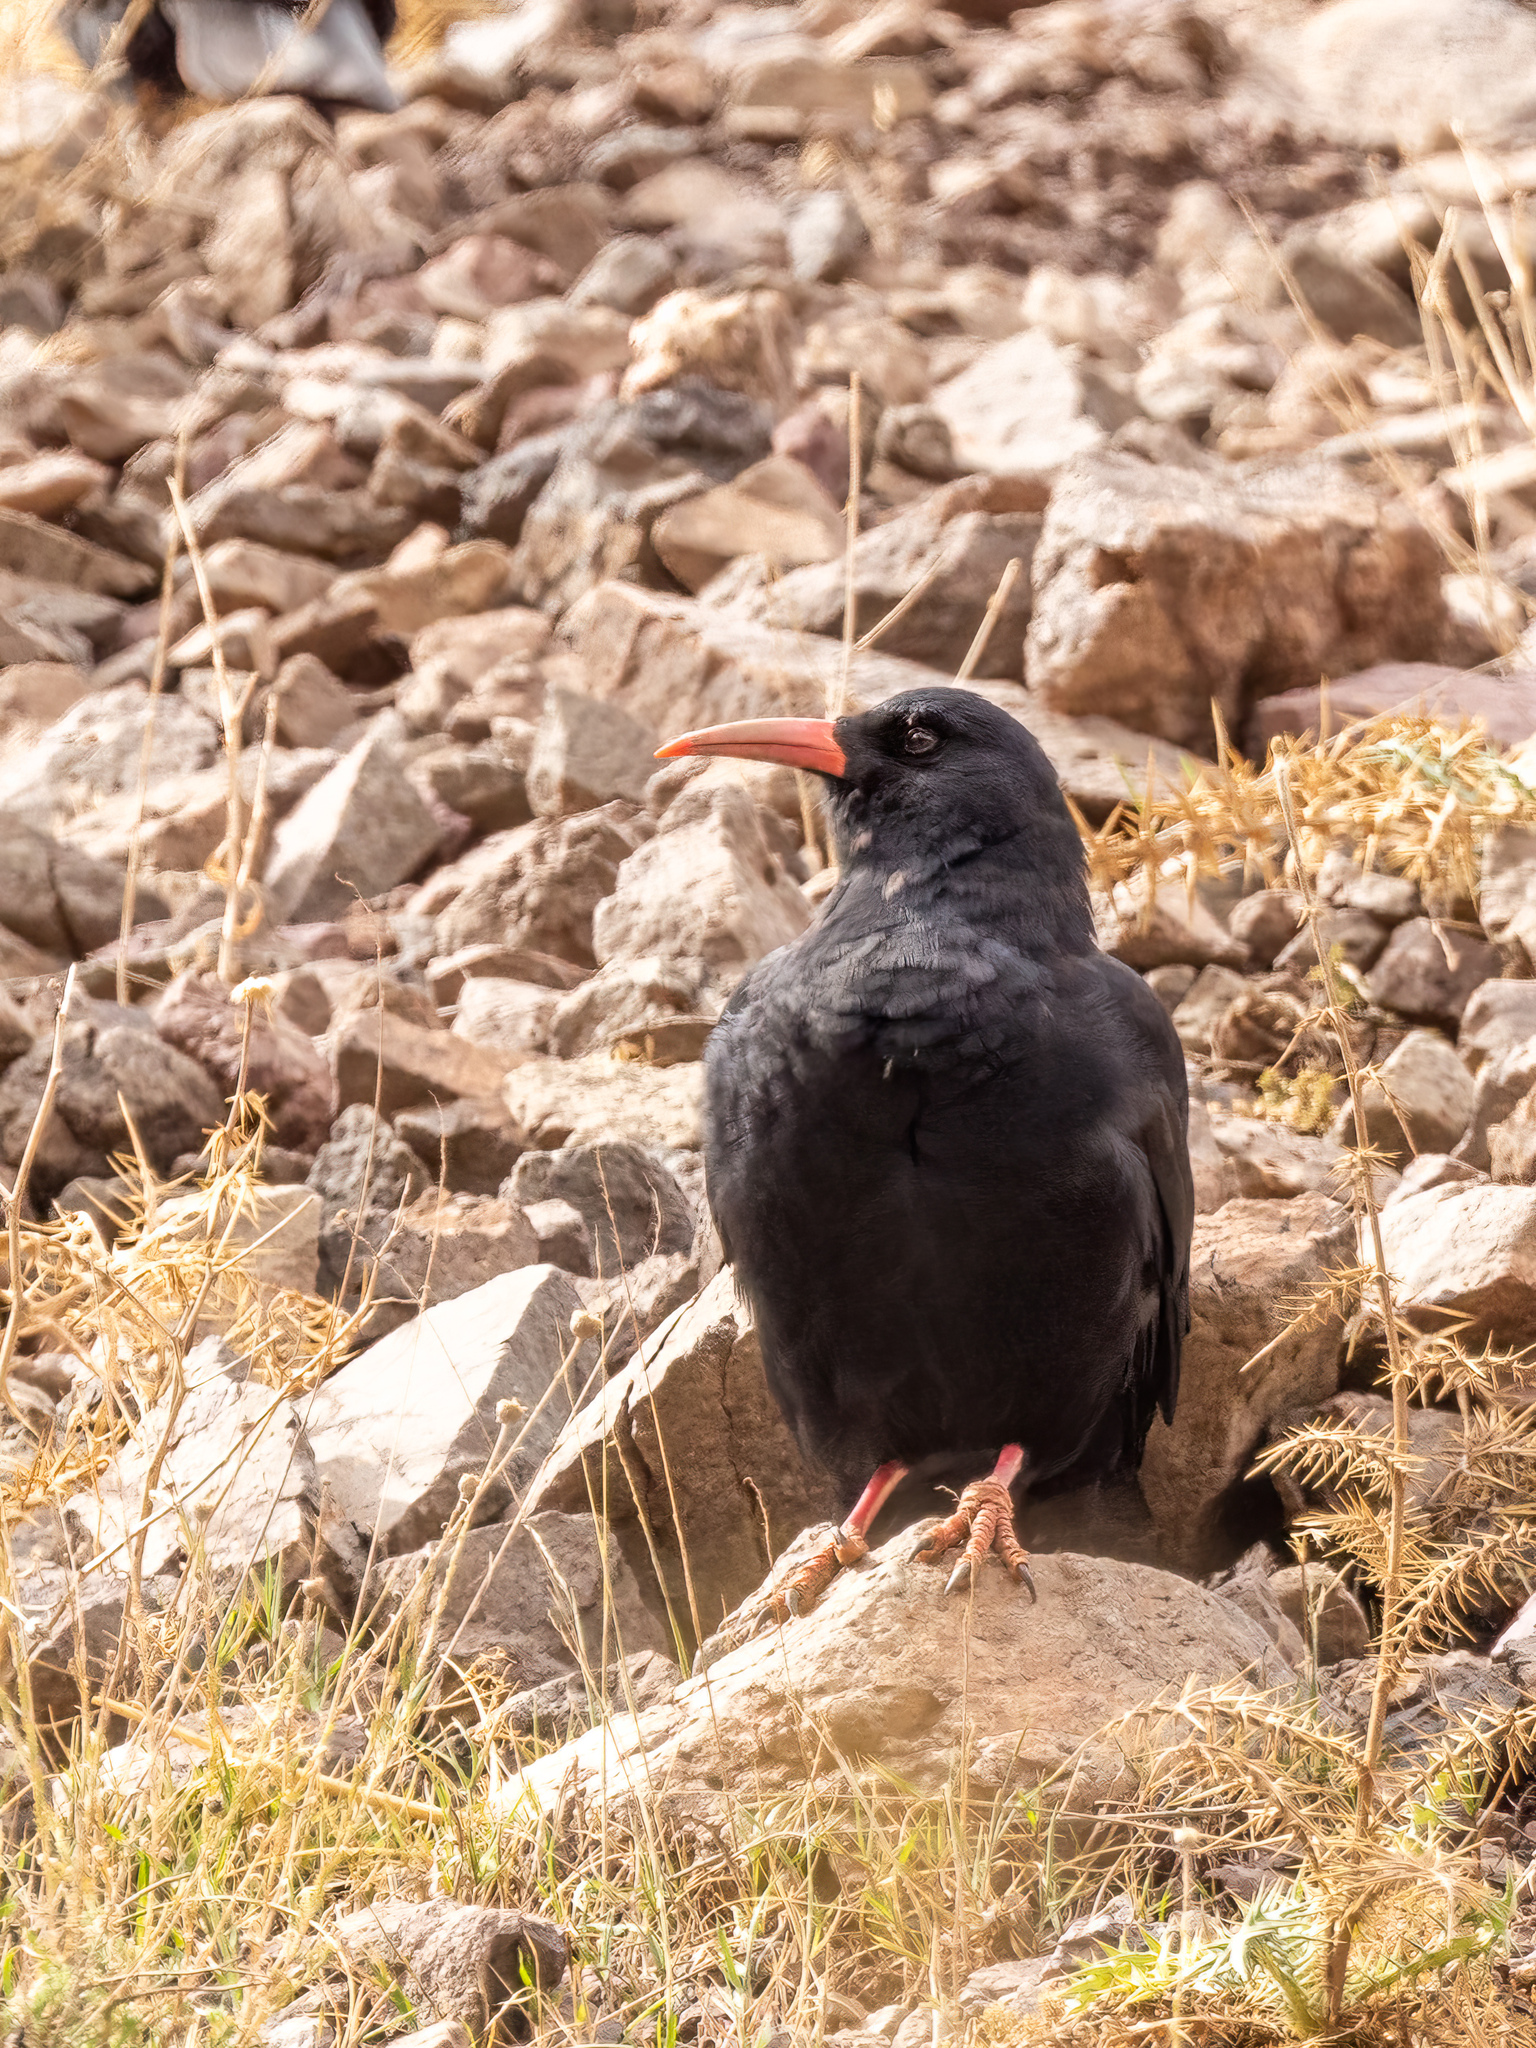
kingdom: Animalia
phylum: Chordata
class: Aves
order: Passeriformes
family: Corvidae
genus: Pyrrhocorax
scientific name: Pyrrhocorax pyrrhocorax
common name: Red-billed chough
